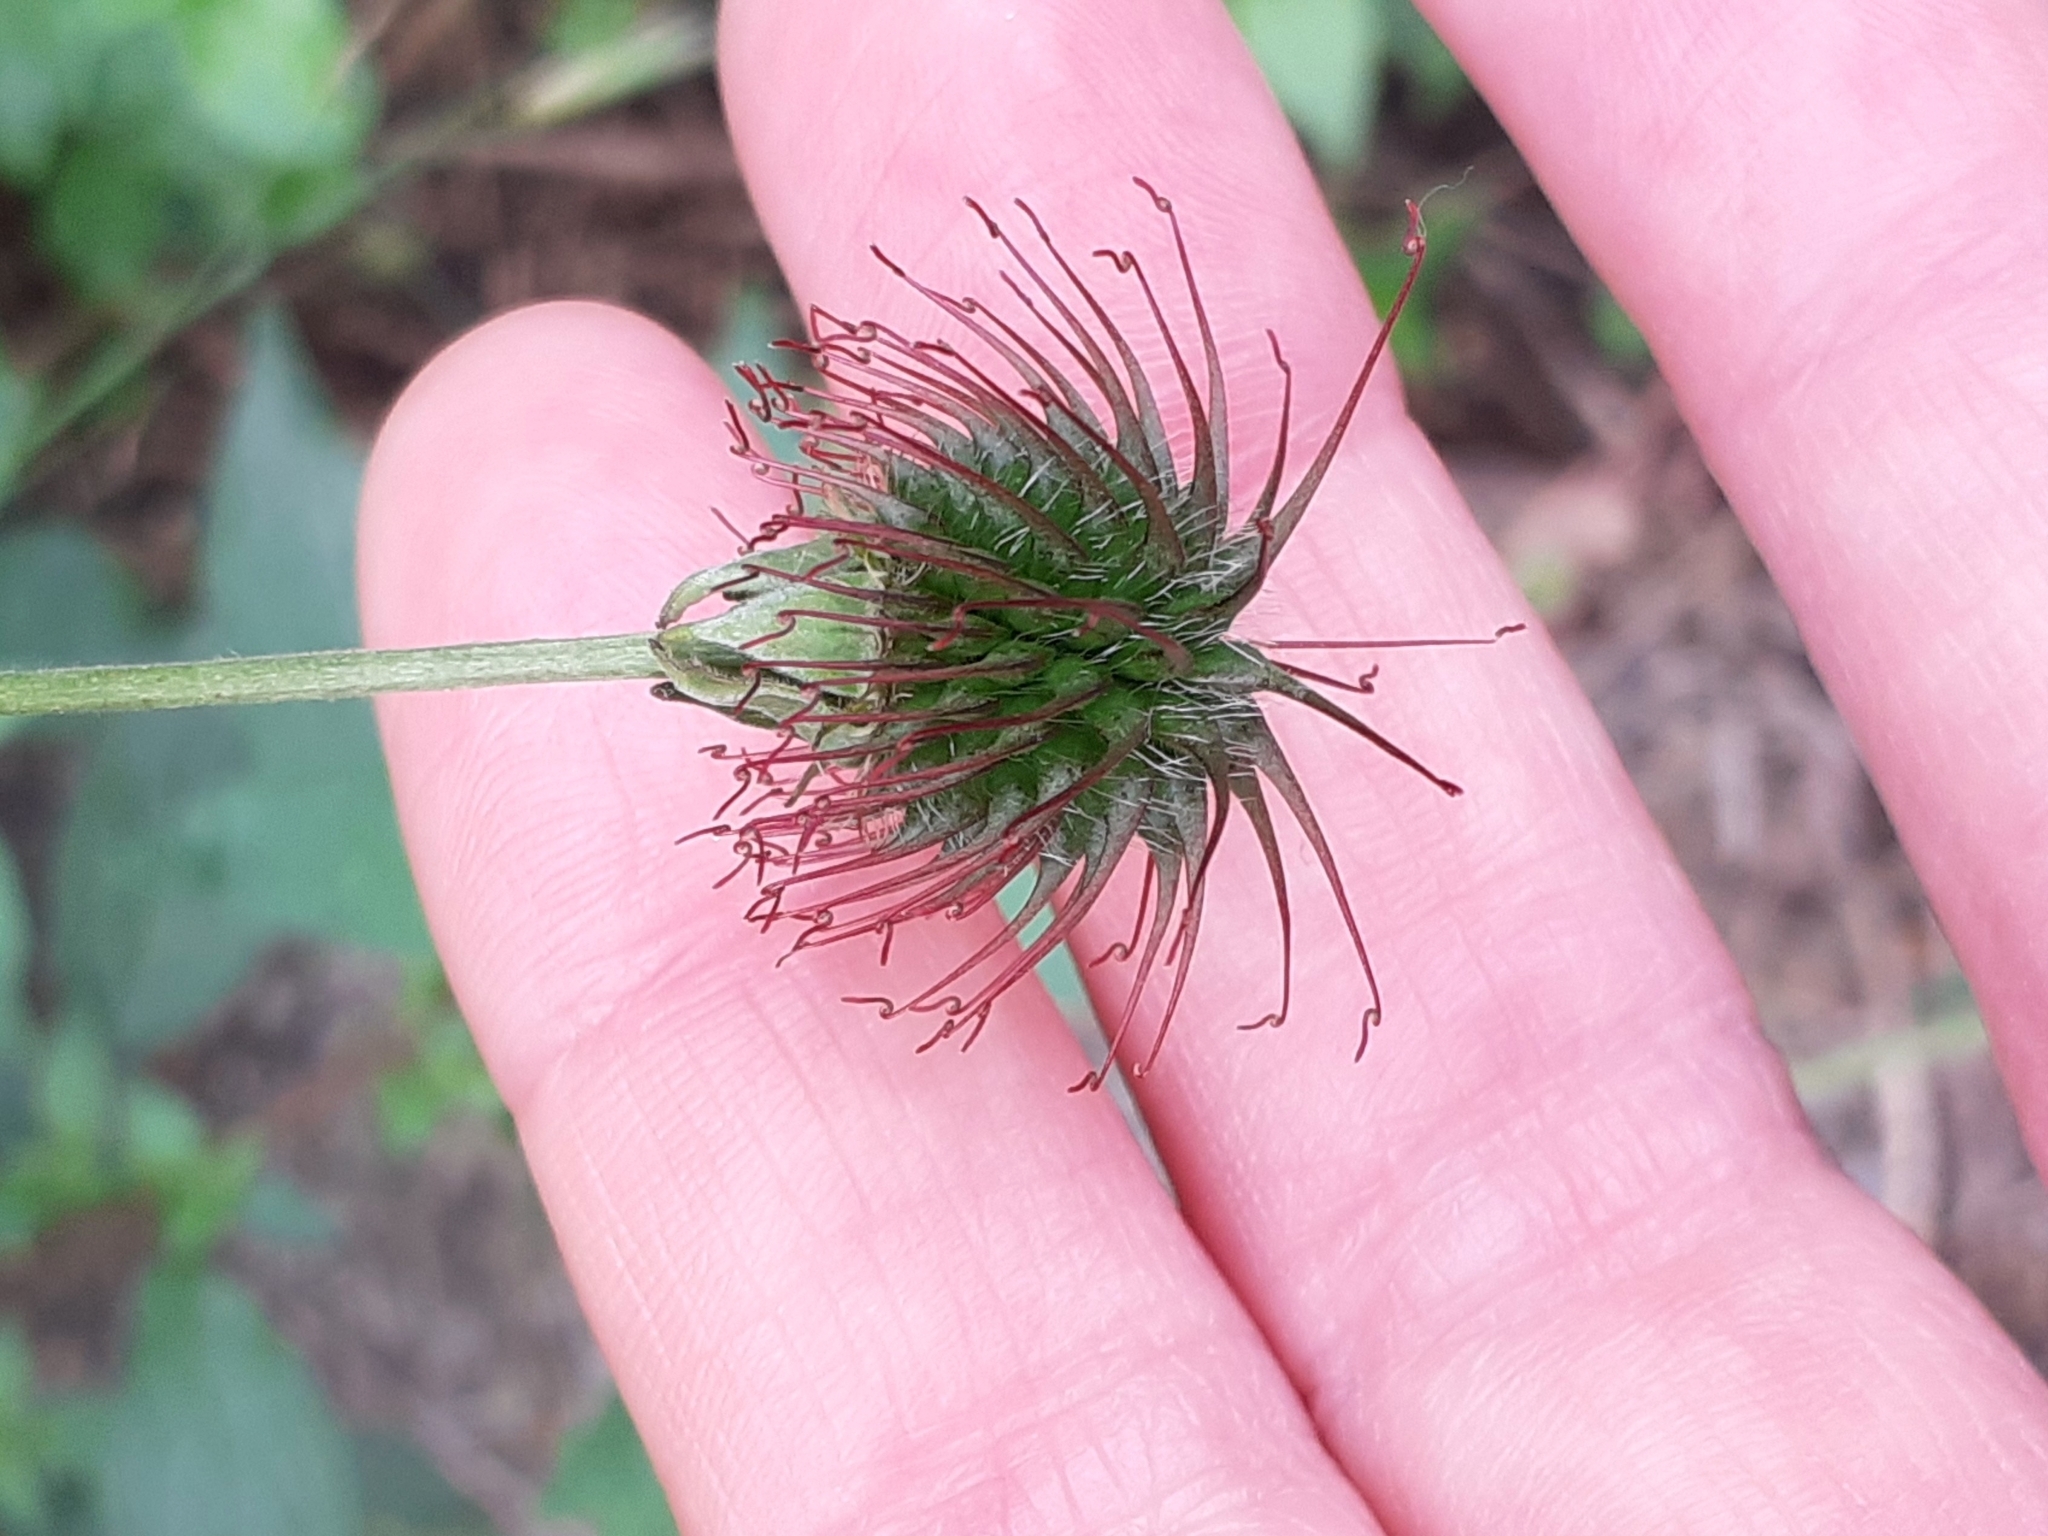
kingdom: Plantae
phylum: Tracheophyta
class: Magnoliopsida
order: Rosales
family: Rosaceae
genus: Geum
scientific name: Geum urbanum
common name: Wood avens
